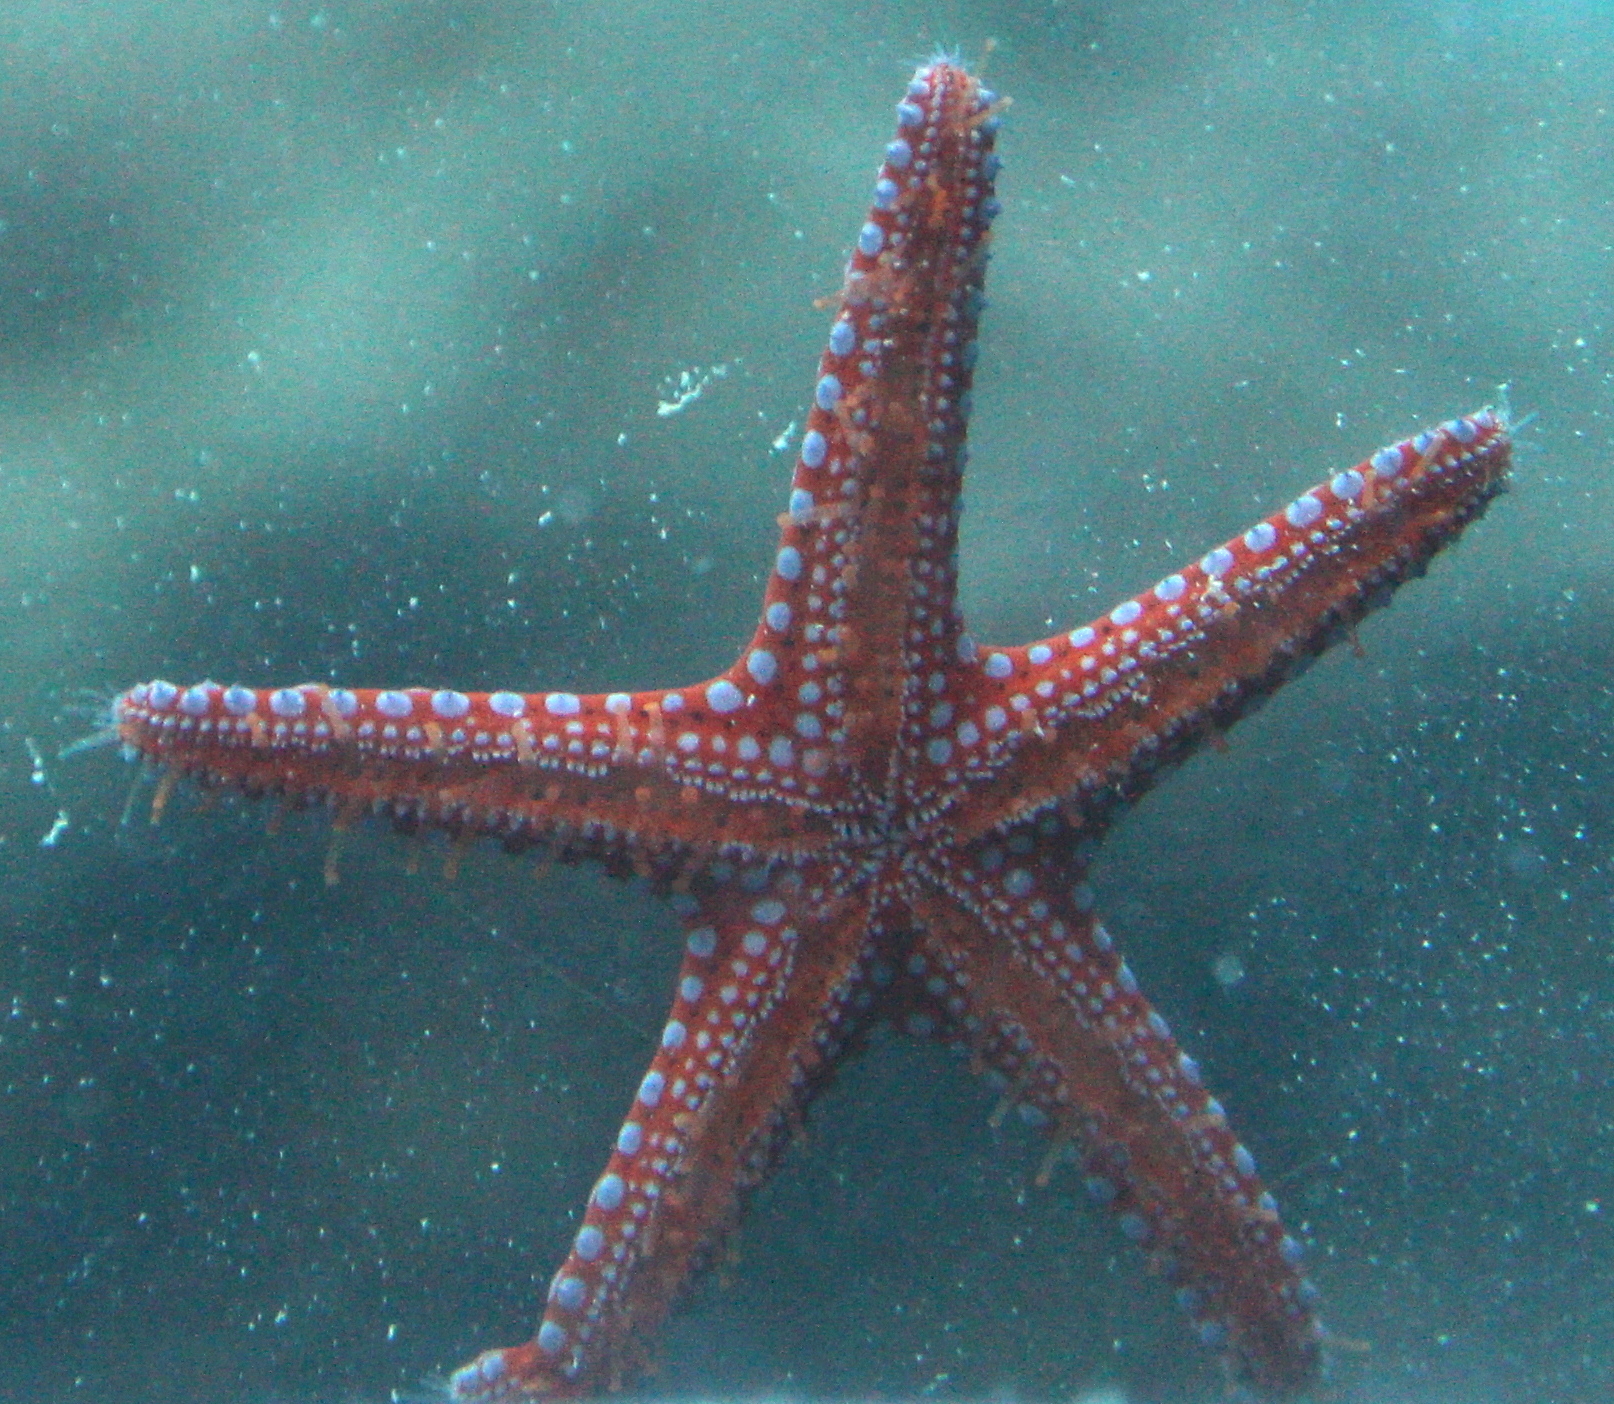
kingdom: Animalia
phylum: Echinodermata
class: Asteroidea
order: Valvatida
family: Goniasteridae
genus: Fromia
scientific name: Fromia ghardaqana
